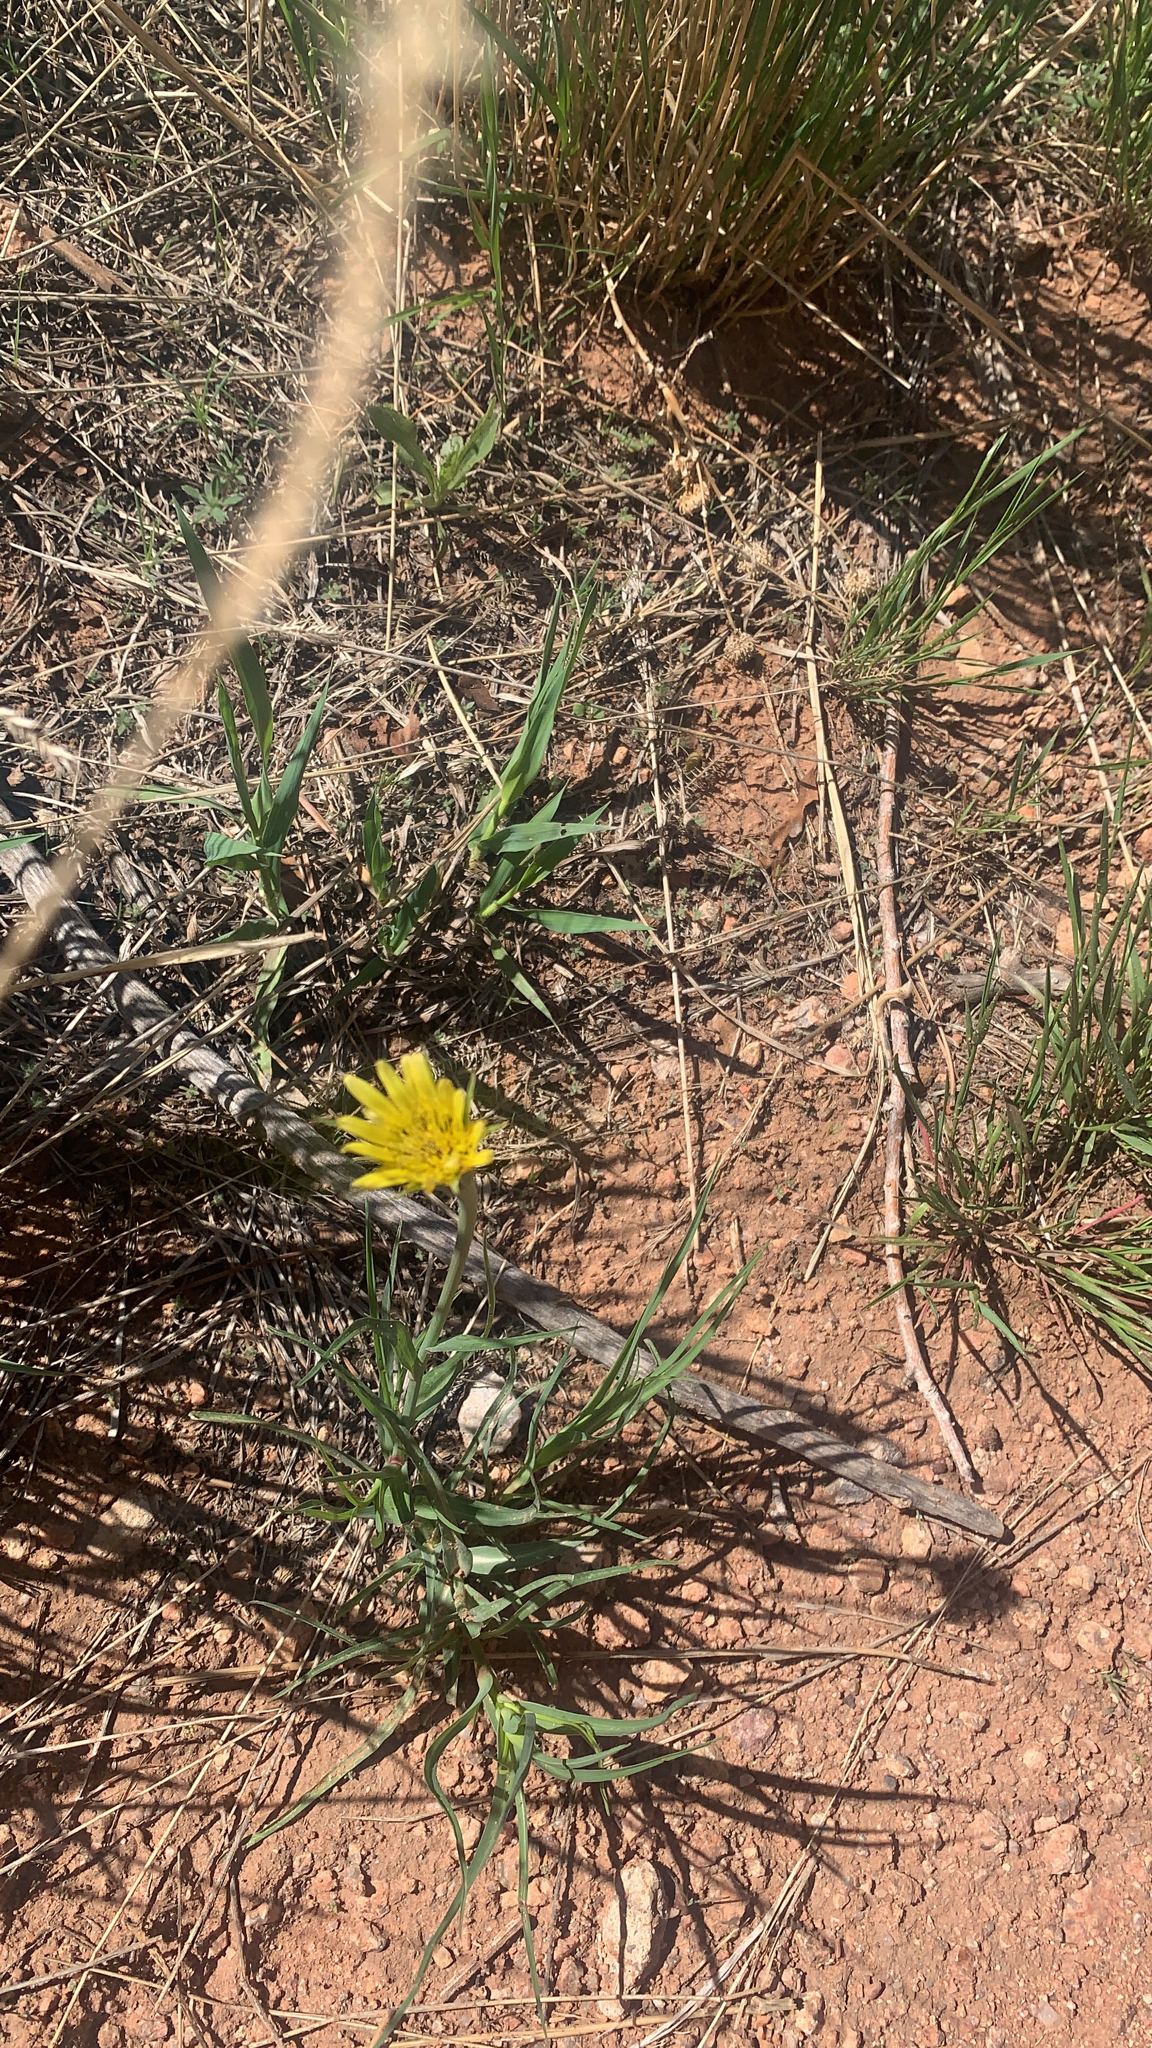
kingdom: Plantae
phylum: Tracheophyta
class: Magnoliopsida
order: Asterales
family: Asteraceae
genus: Tragopogon
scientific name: Tragopogon dubius
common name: Yellow salsify
